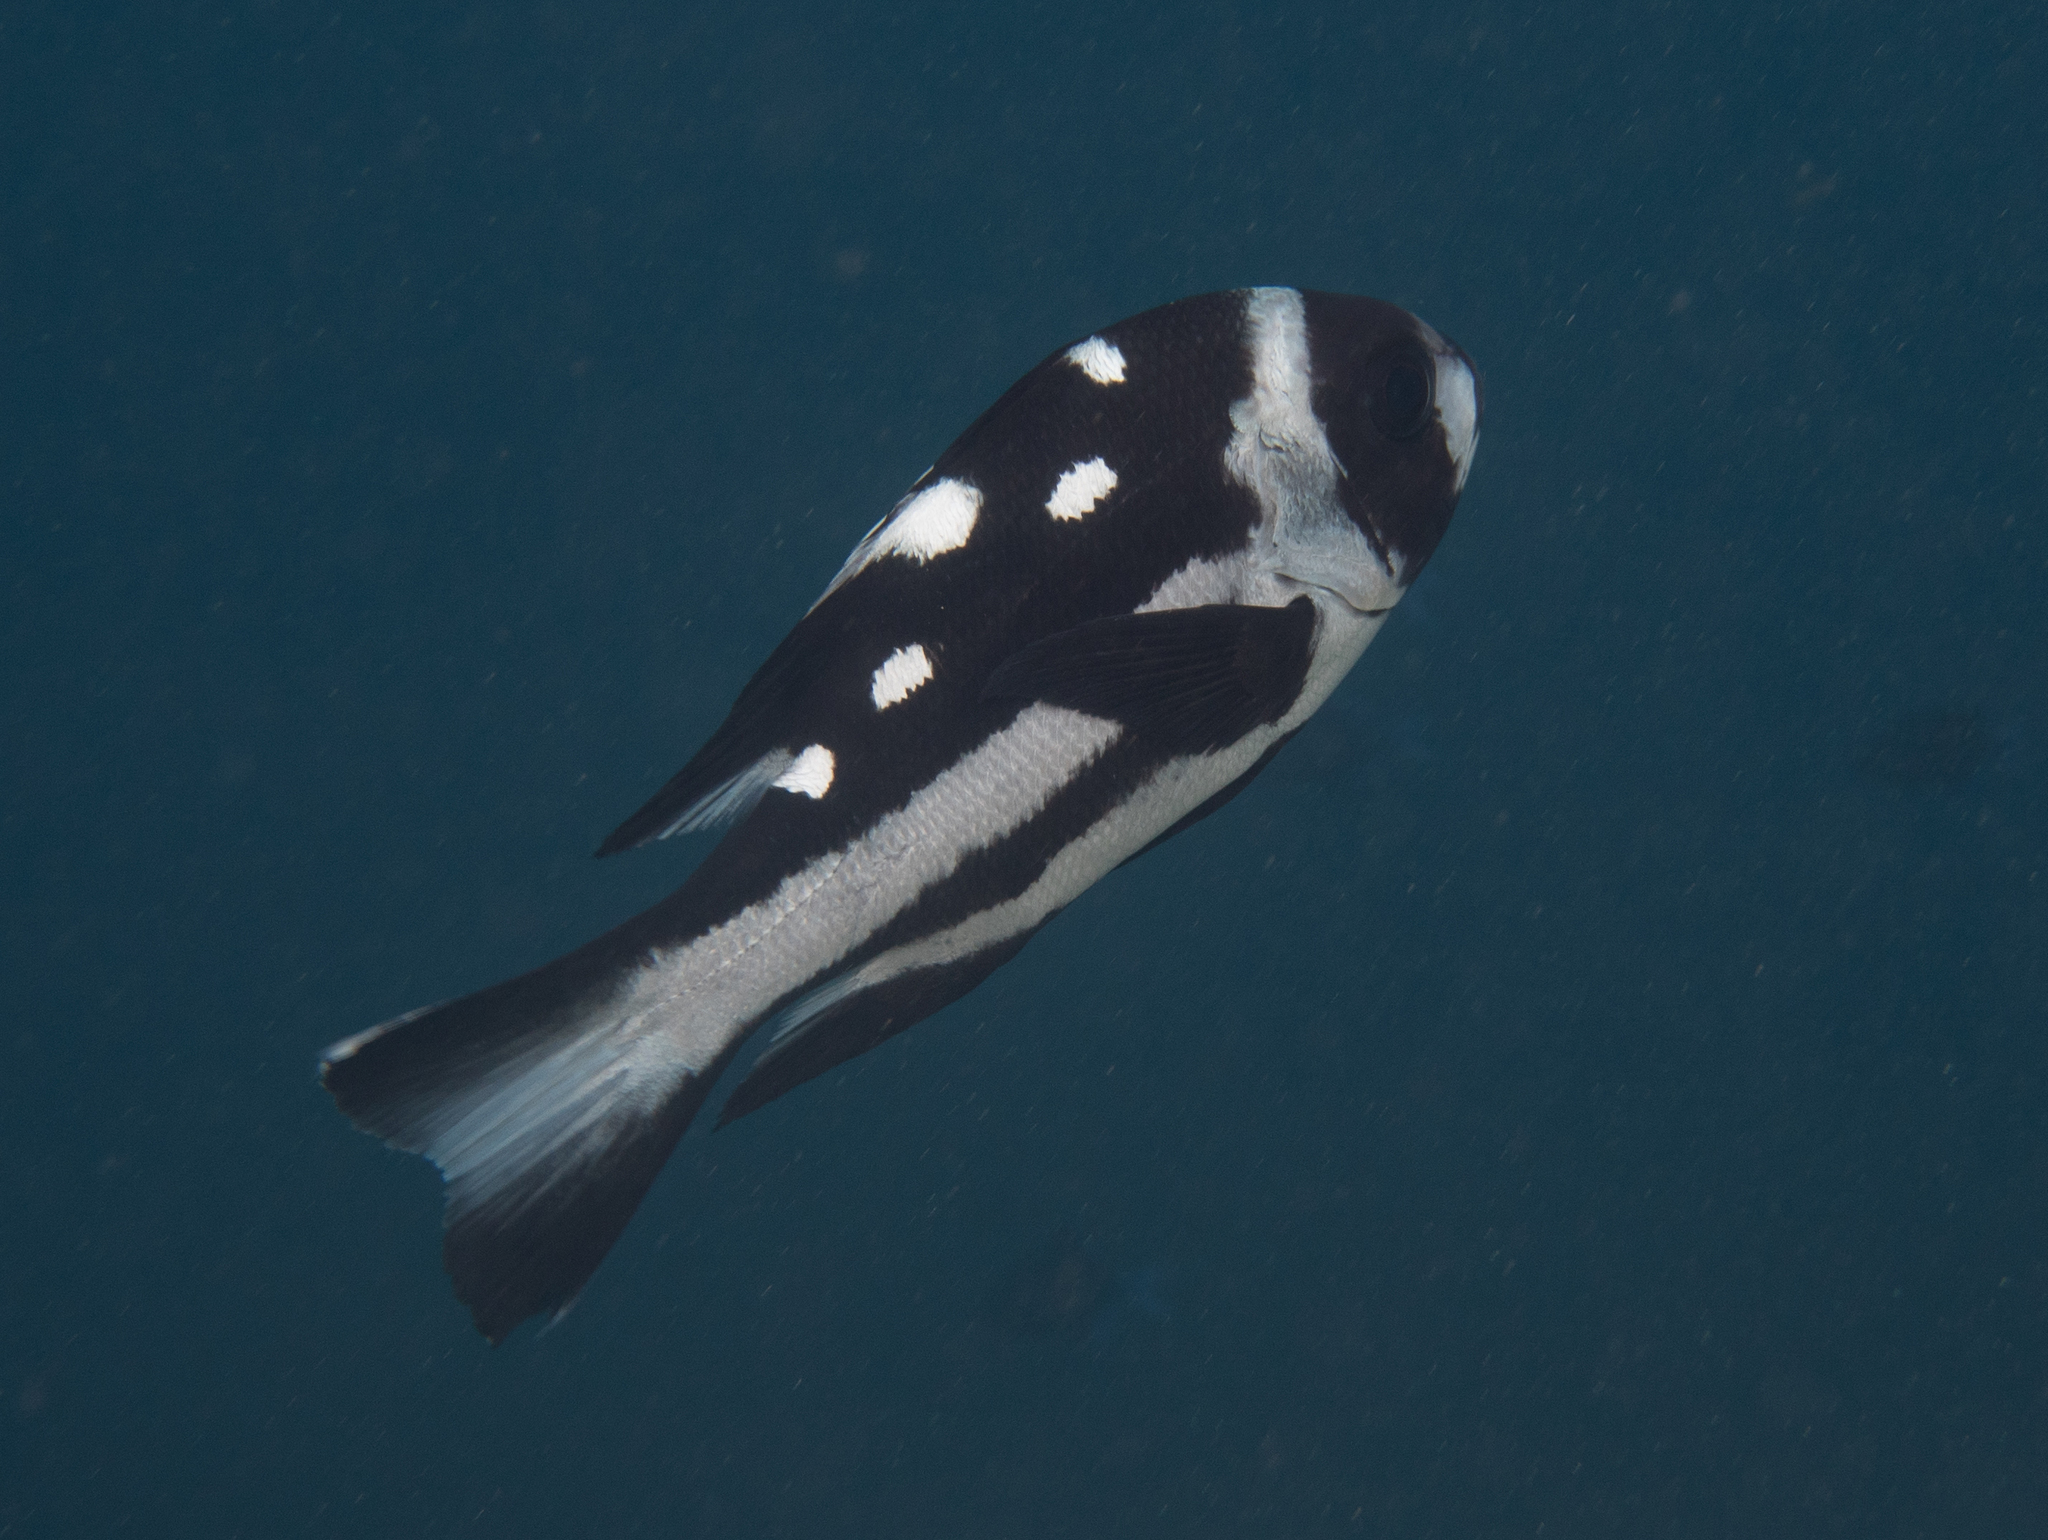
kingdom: Animalia
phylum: Chordata
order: Perciformes
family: Lutjanidae
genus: Macolor
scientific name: Macolor niger
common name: Black snapper
